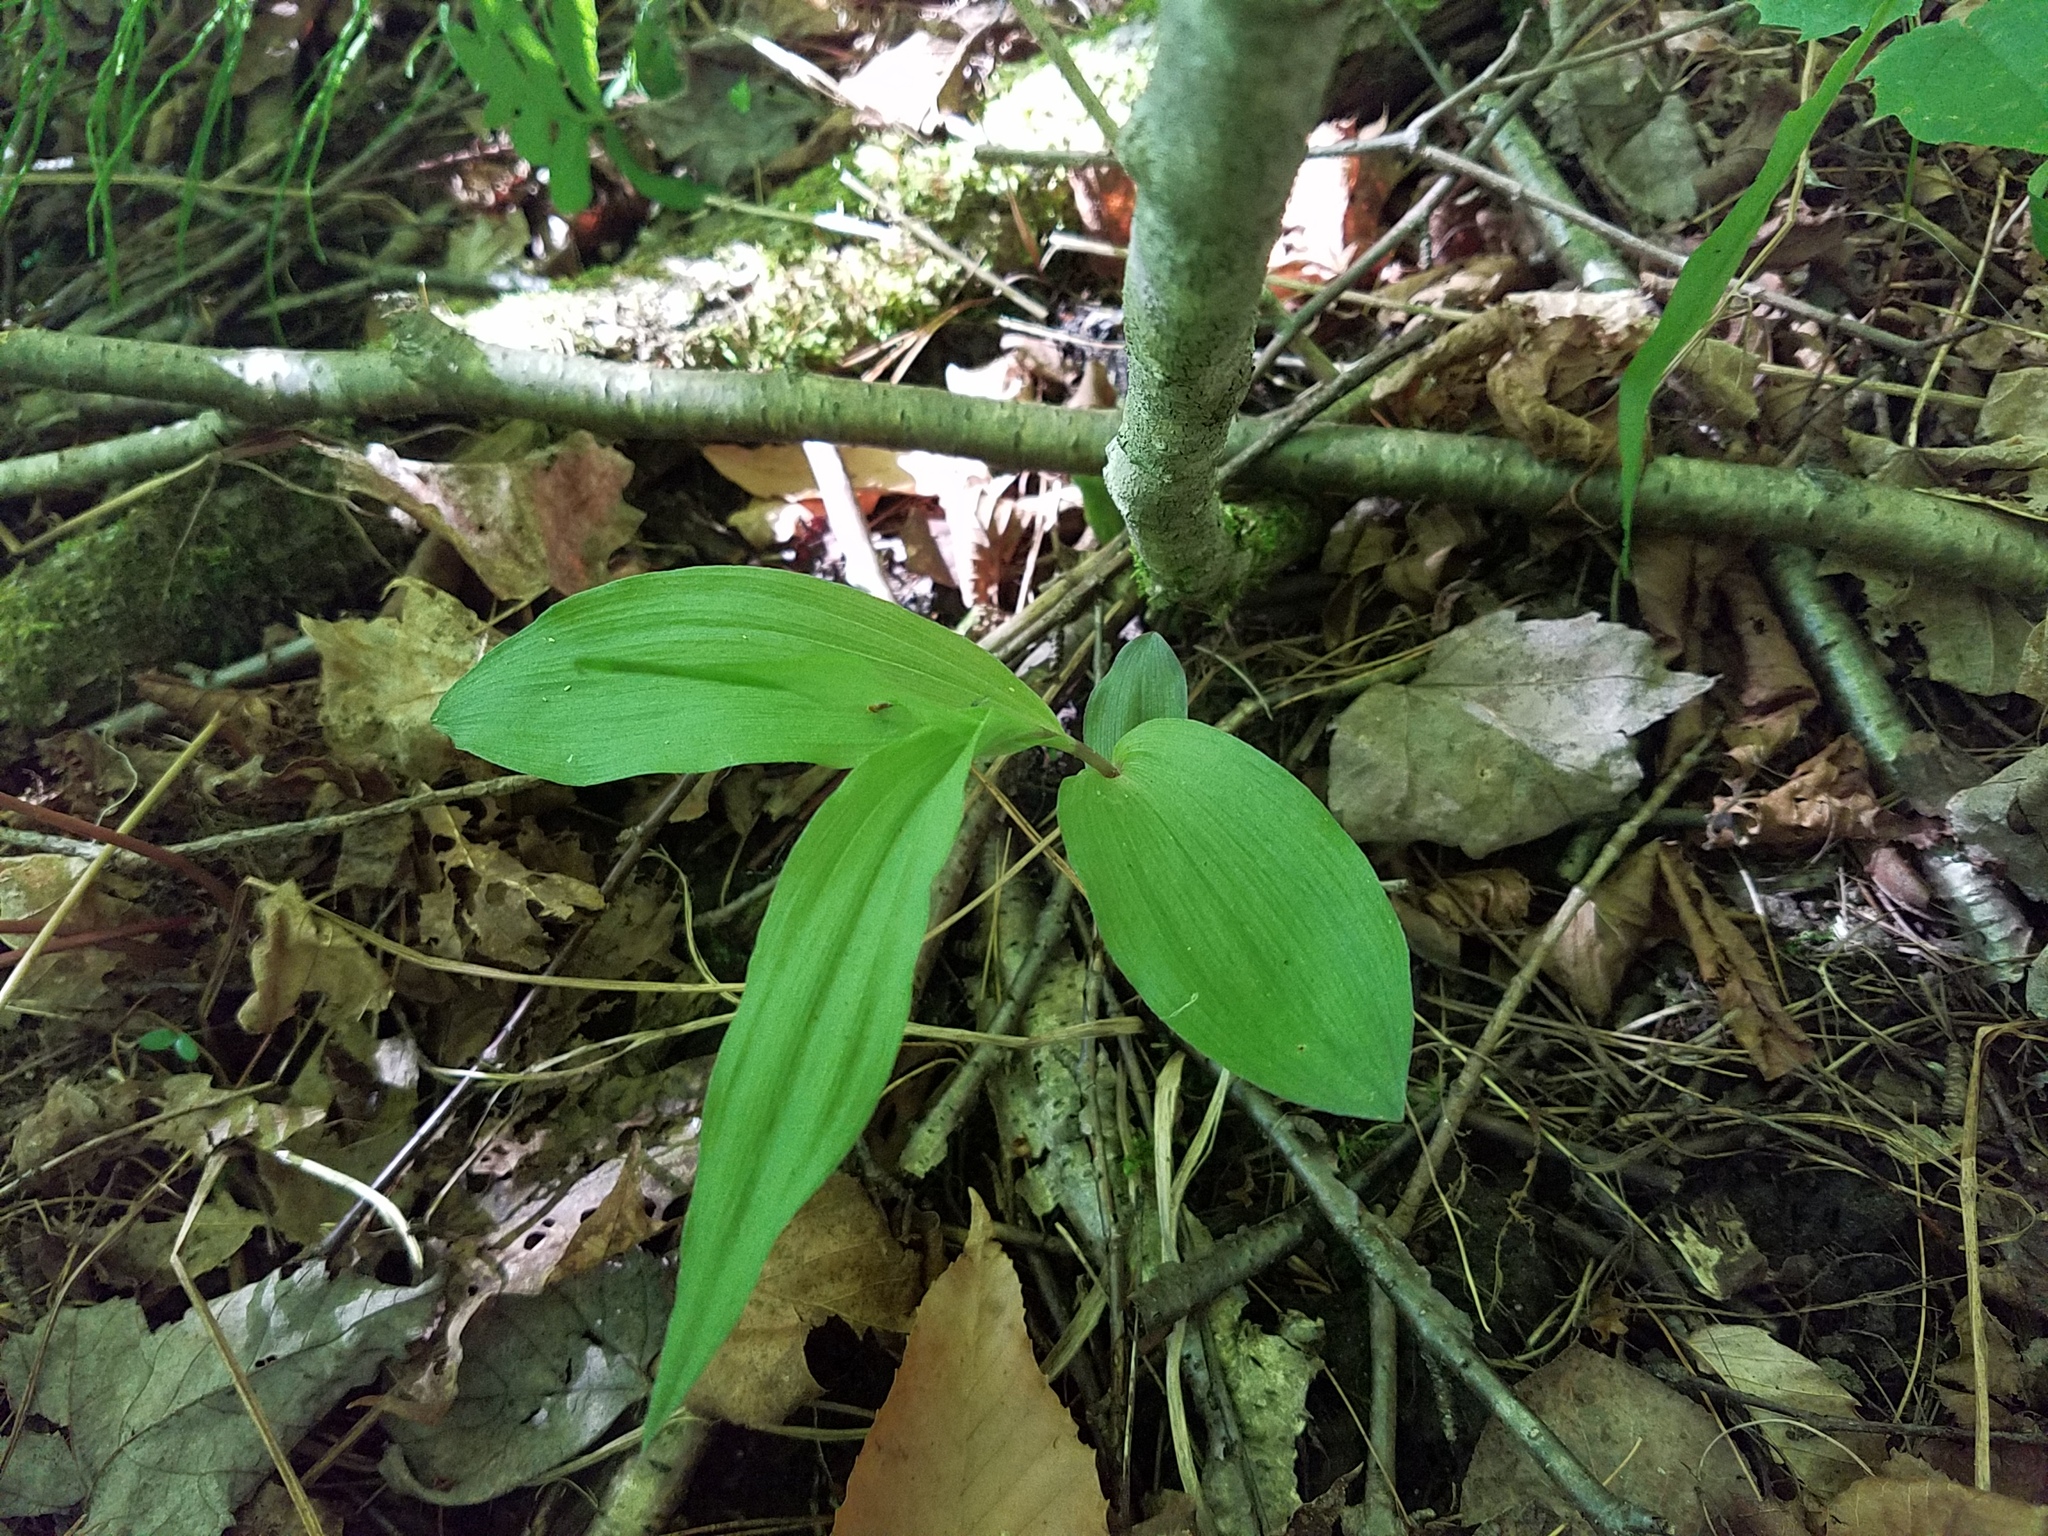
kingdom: Plantae
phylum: Tracheophyta
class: Liliopsida
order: Asparagales
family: Orchidaceae
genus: Epipactis
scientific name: Epipactis helleborine
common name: Broad-leaved helleborine
